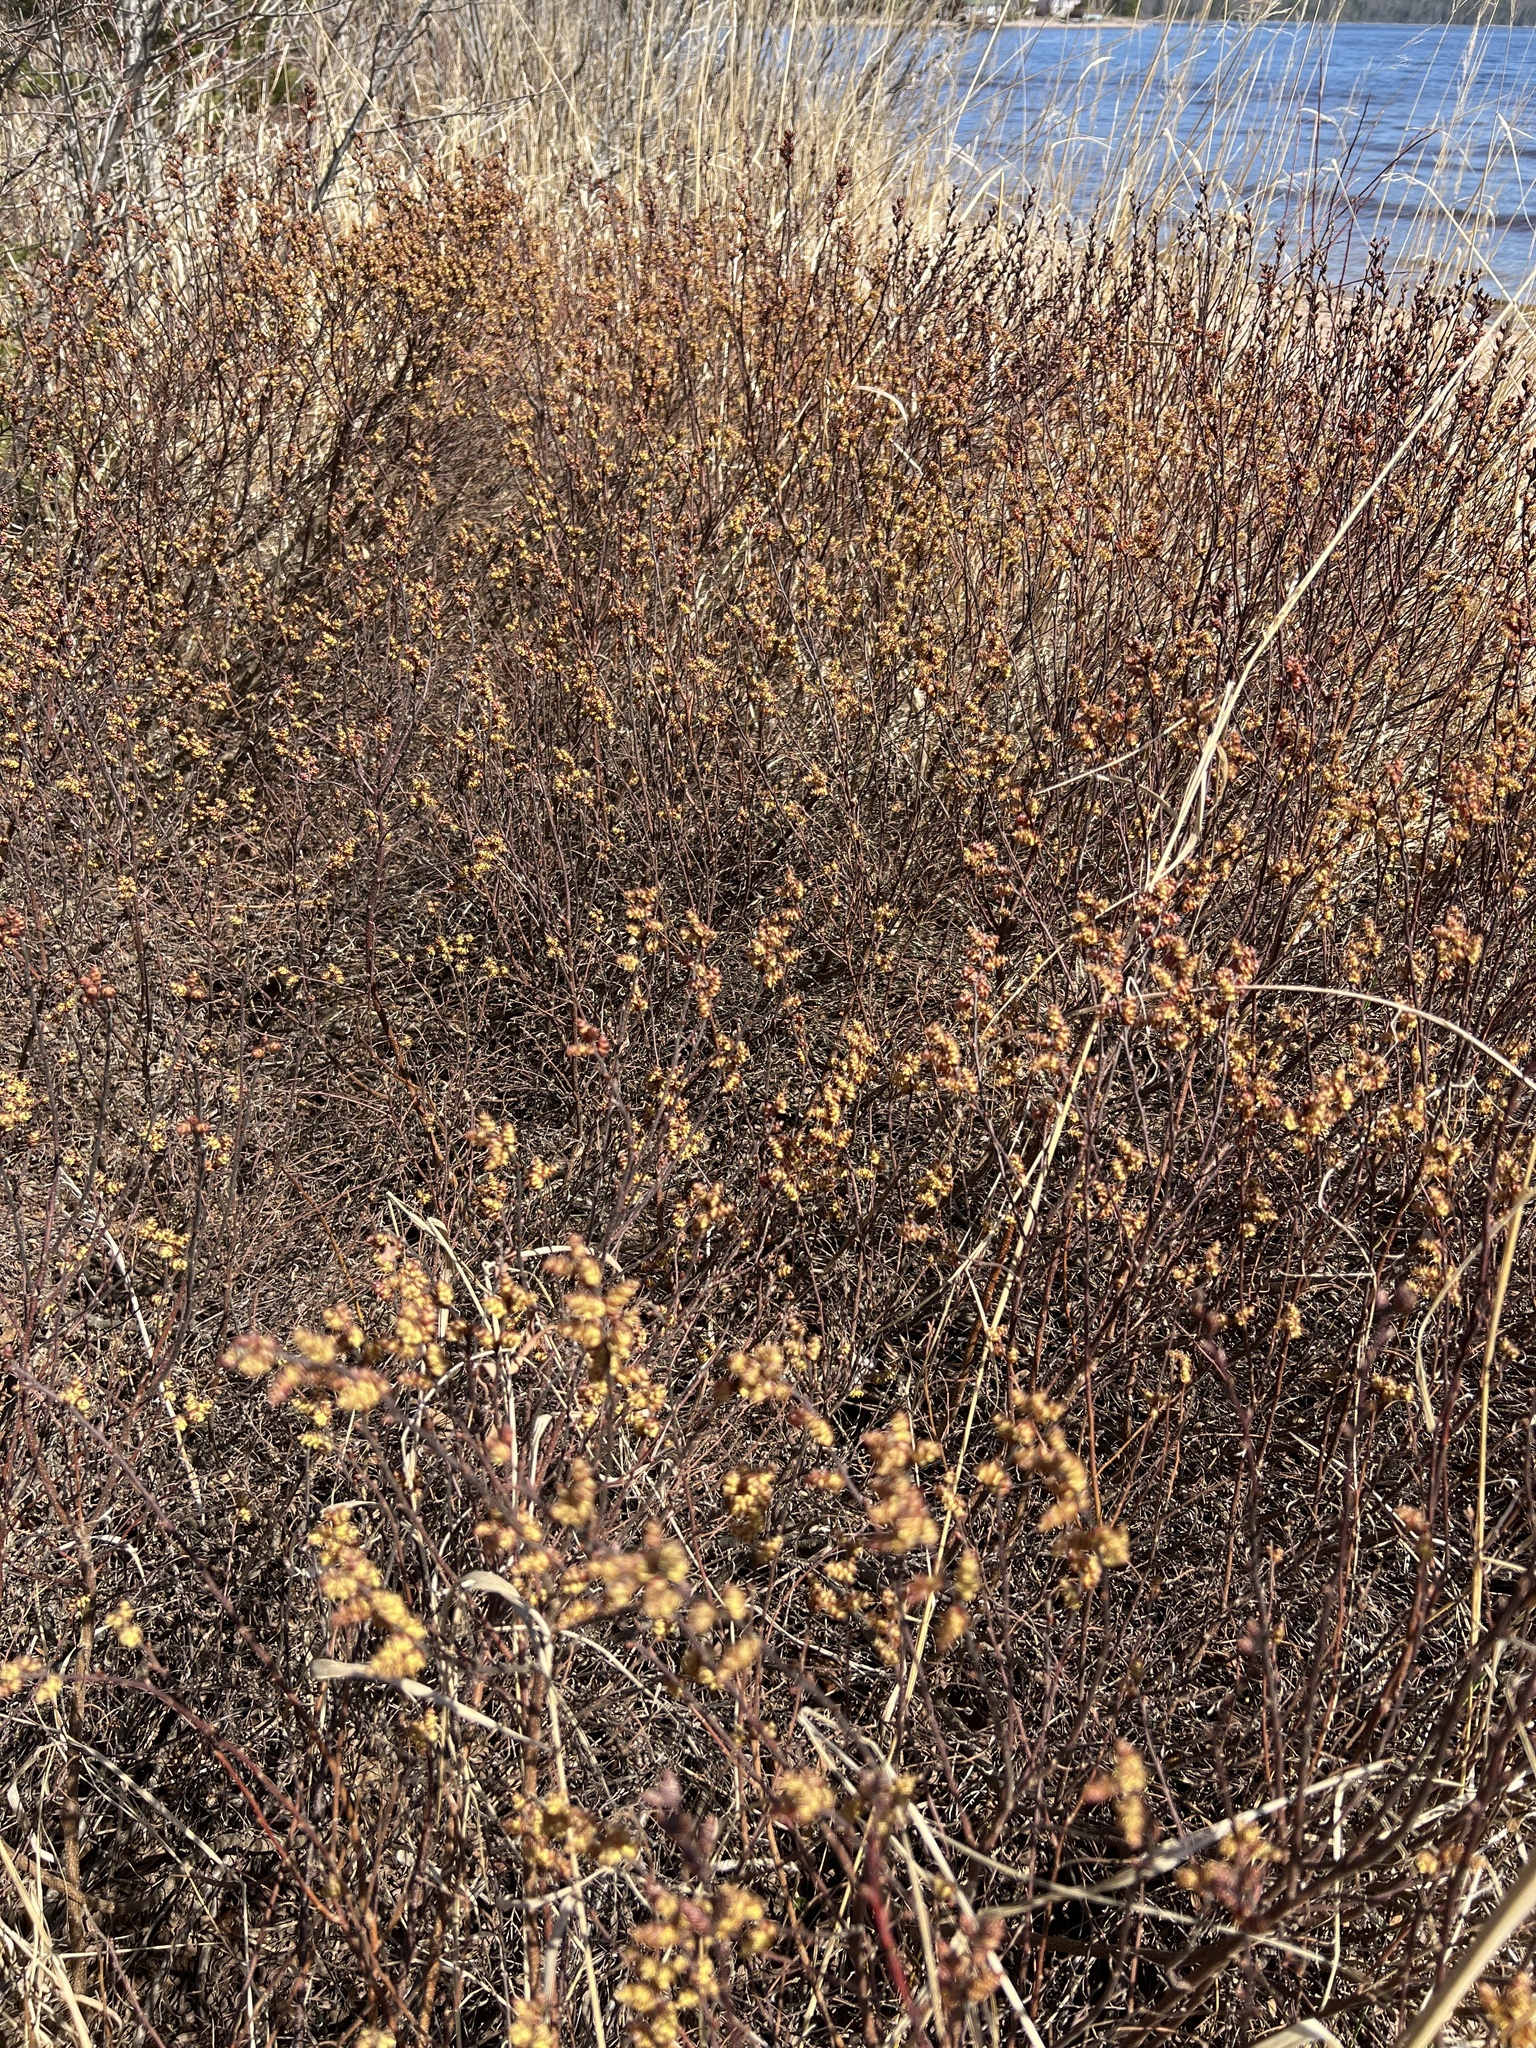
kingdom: Plantae
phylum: Tracheophyta
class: Magnoliopsida
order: Fagales
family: Myricaceae
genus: Myrica
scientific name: Myrica gale
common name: Sweet gale
